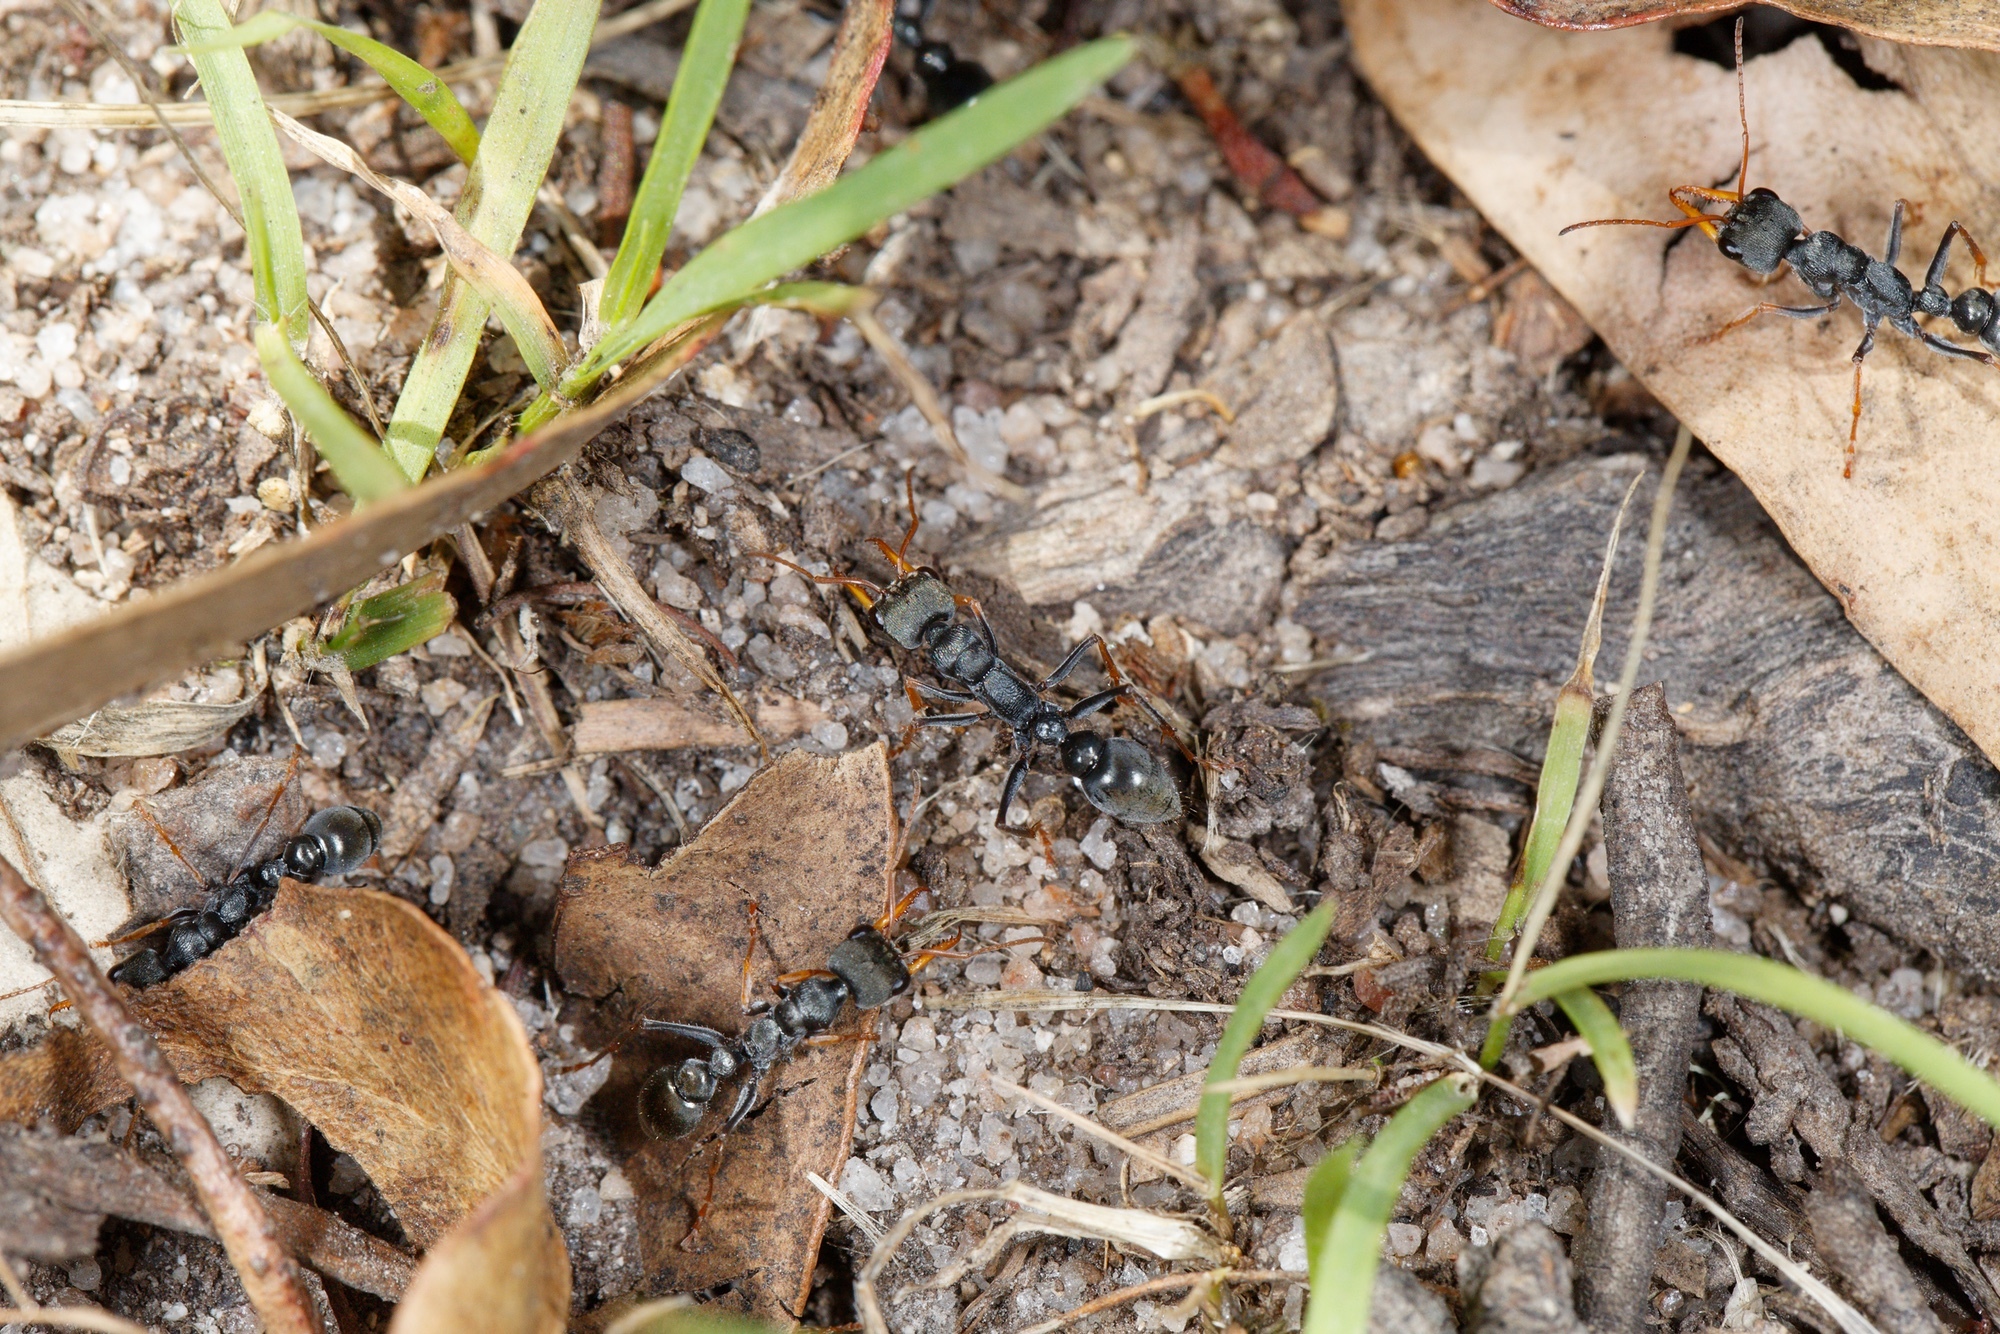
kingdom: Animalia
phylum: Arthropoda
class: Insecta
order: Hymenoptera
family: Formicidae
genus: Myrmecia
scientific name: Myrmecia pilosula
